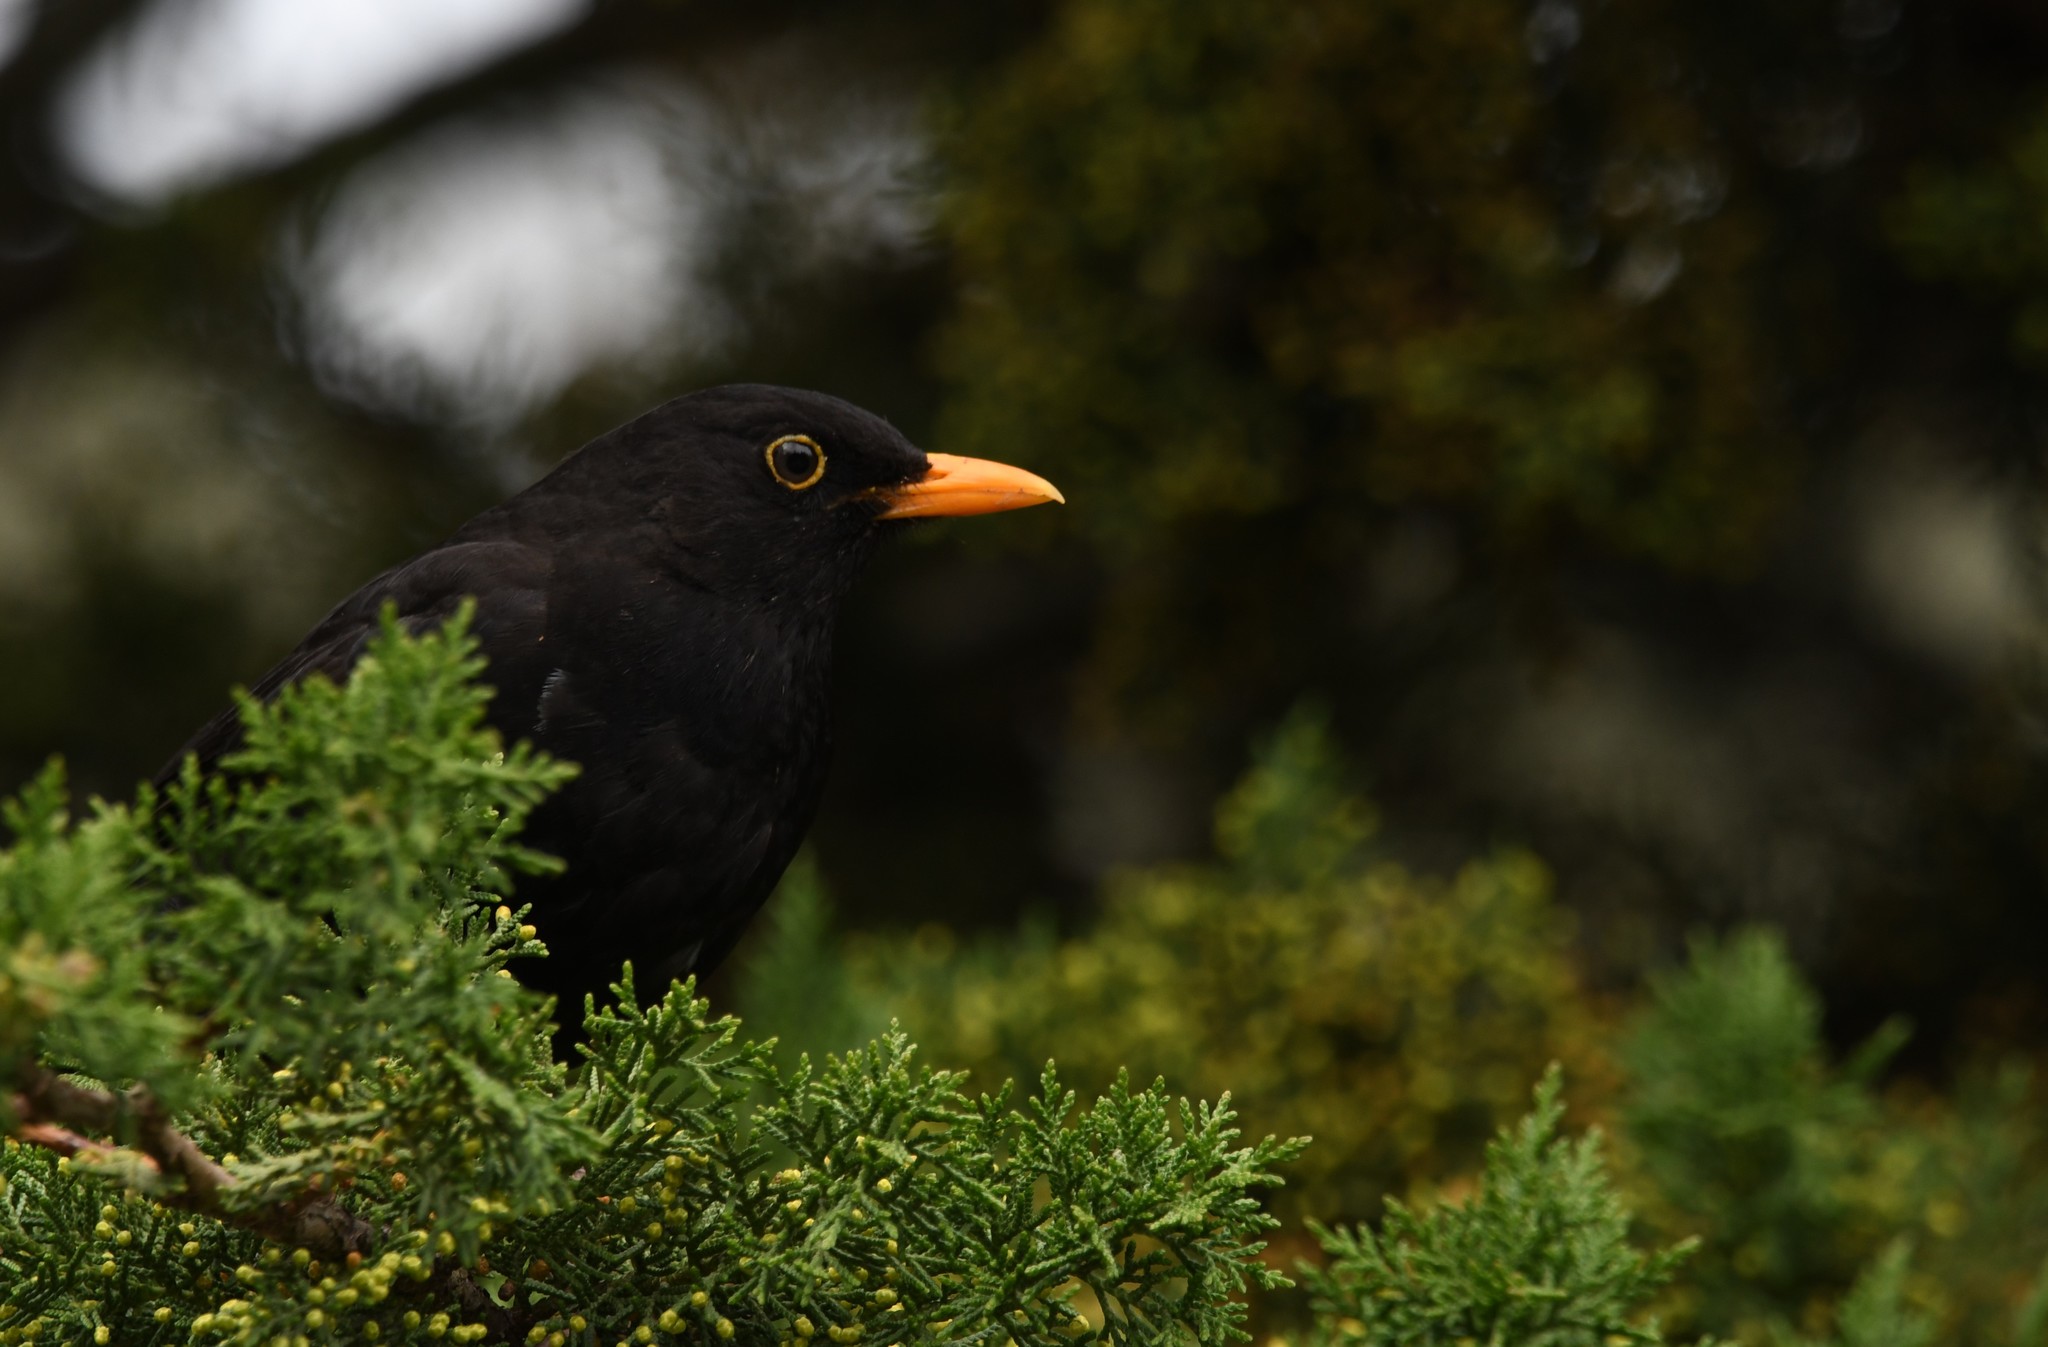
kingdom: Animalia
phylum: Chordata
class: Aves
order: Passeriformes
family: Turdidae
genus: Turdus
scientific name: Turdus merula
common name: Common blackbird
